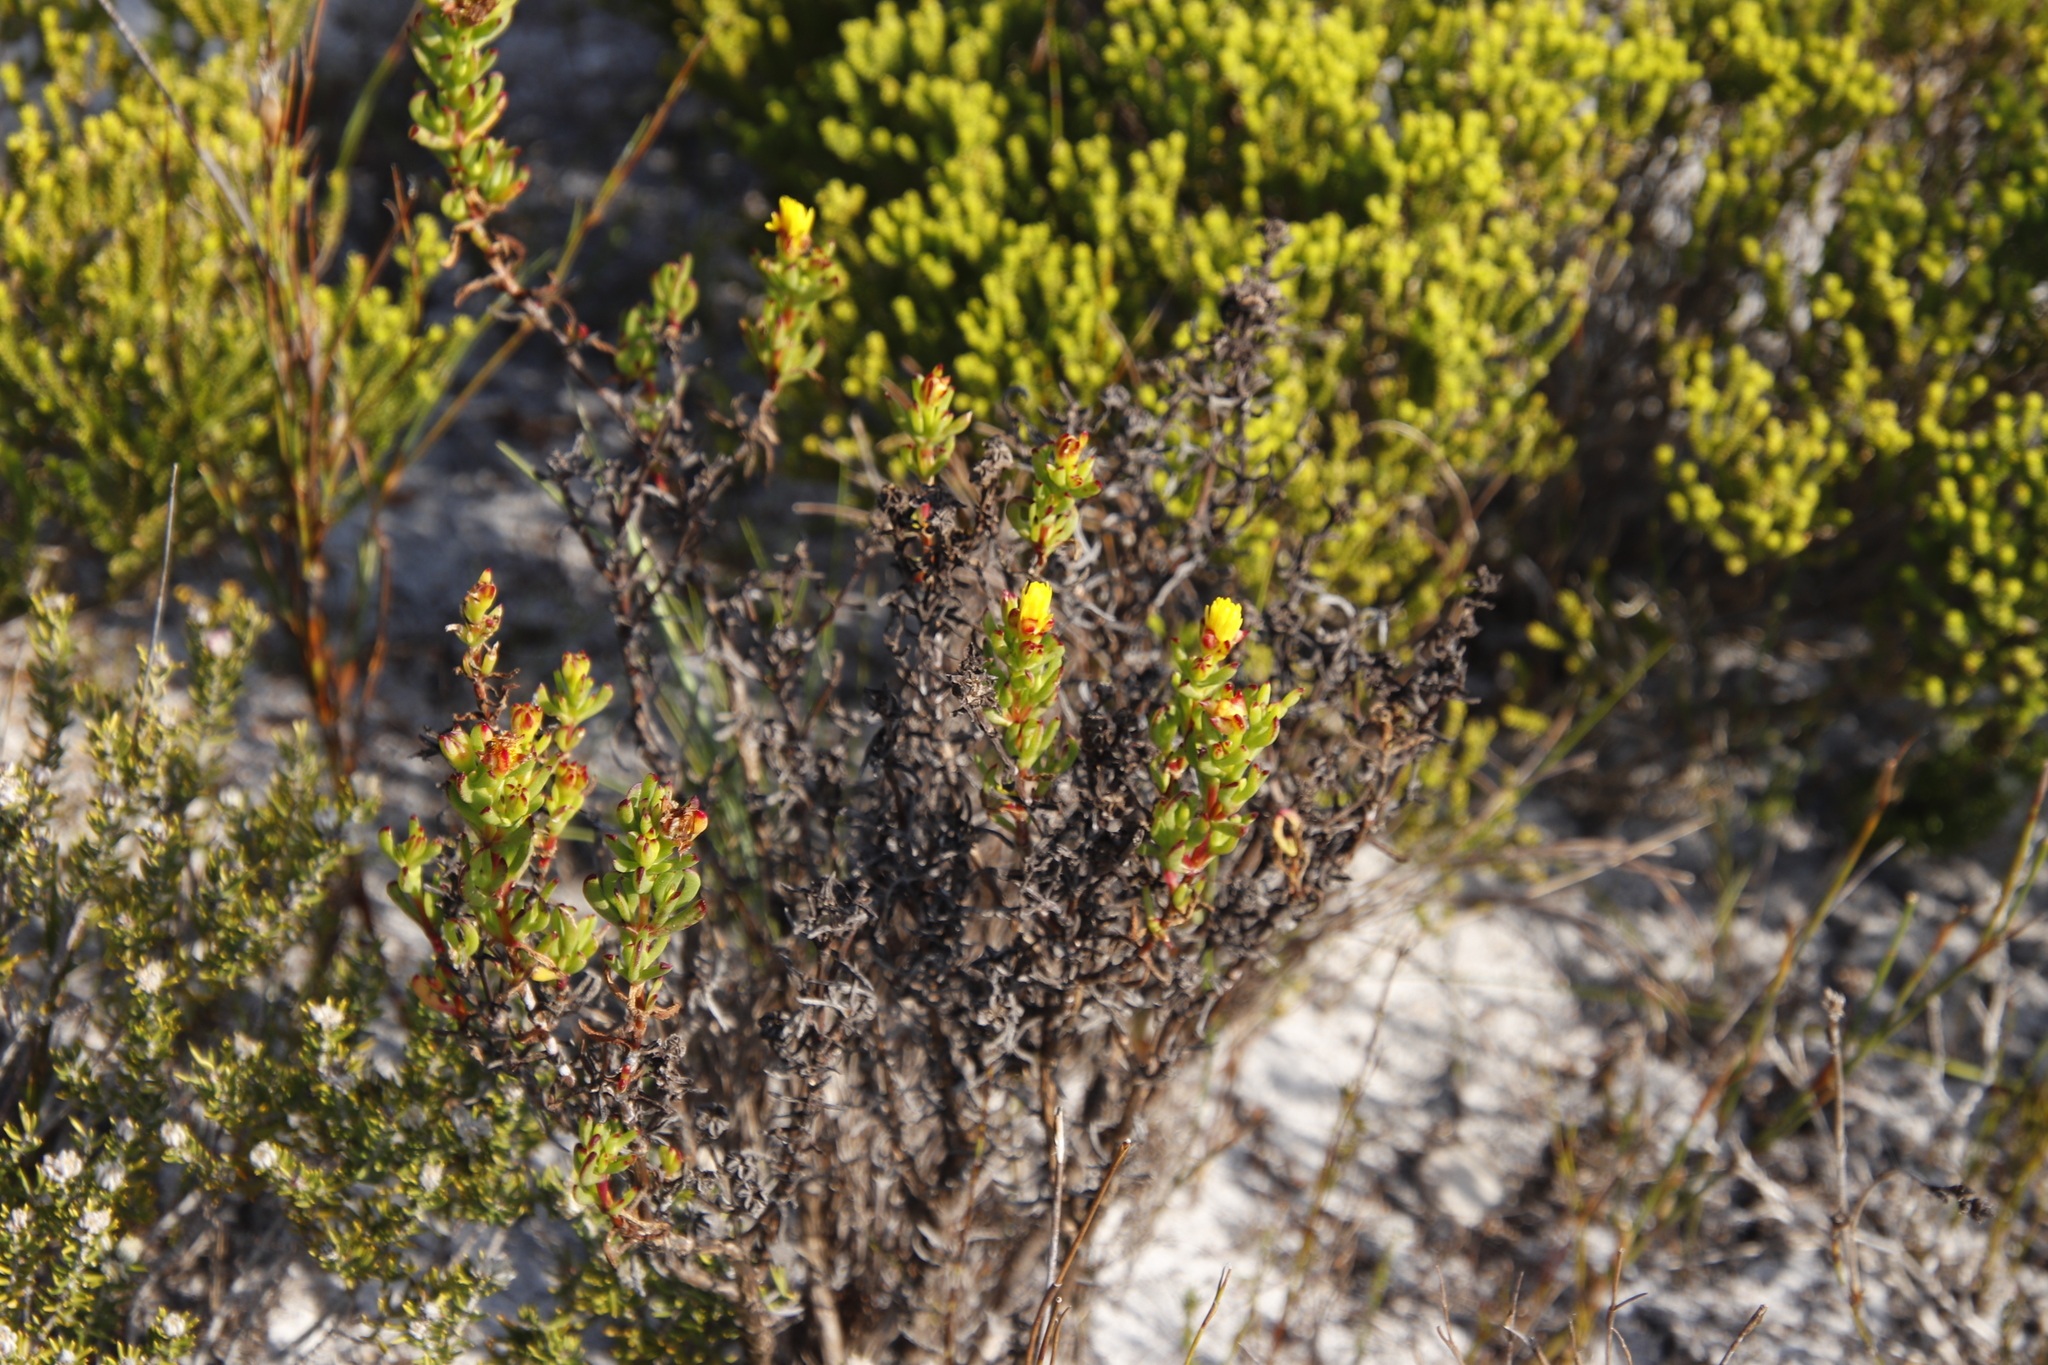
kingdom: Plantae
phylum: Tracheophyta
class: Magnoliopsida
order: Caryophyllales
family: Aizoaceae
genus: Lampranthus
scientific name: Lampranthus promontorii
